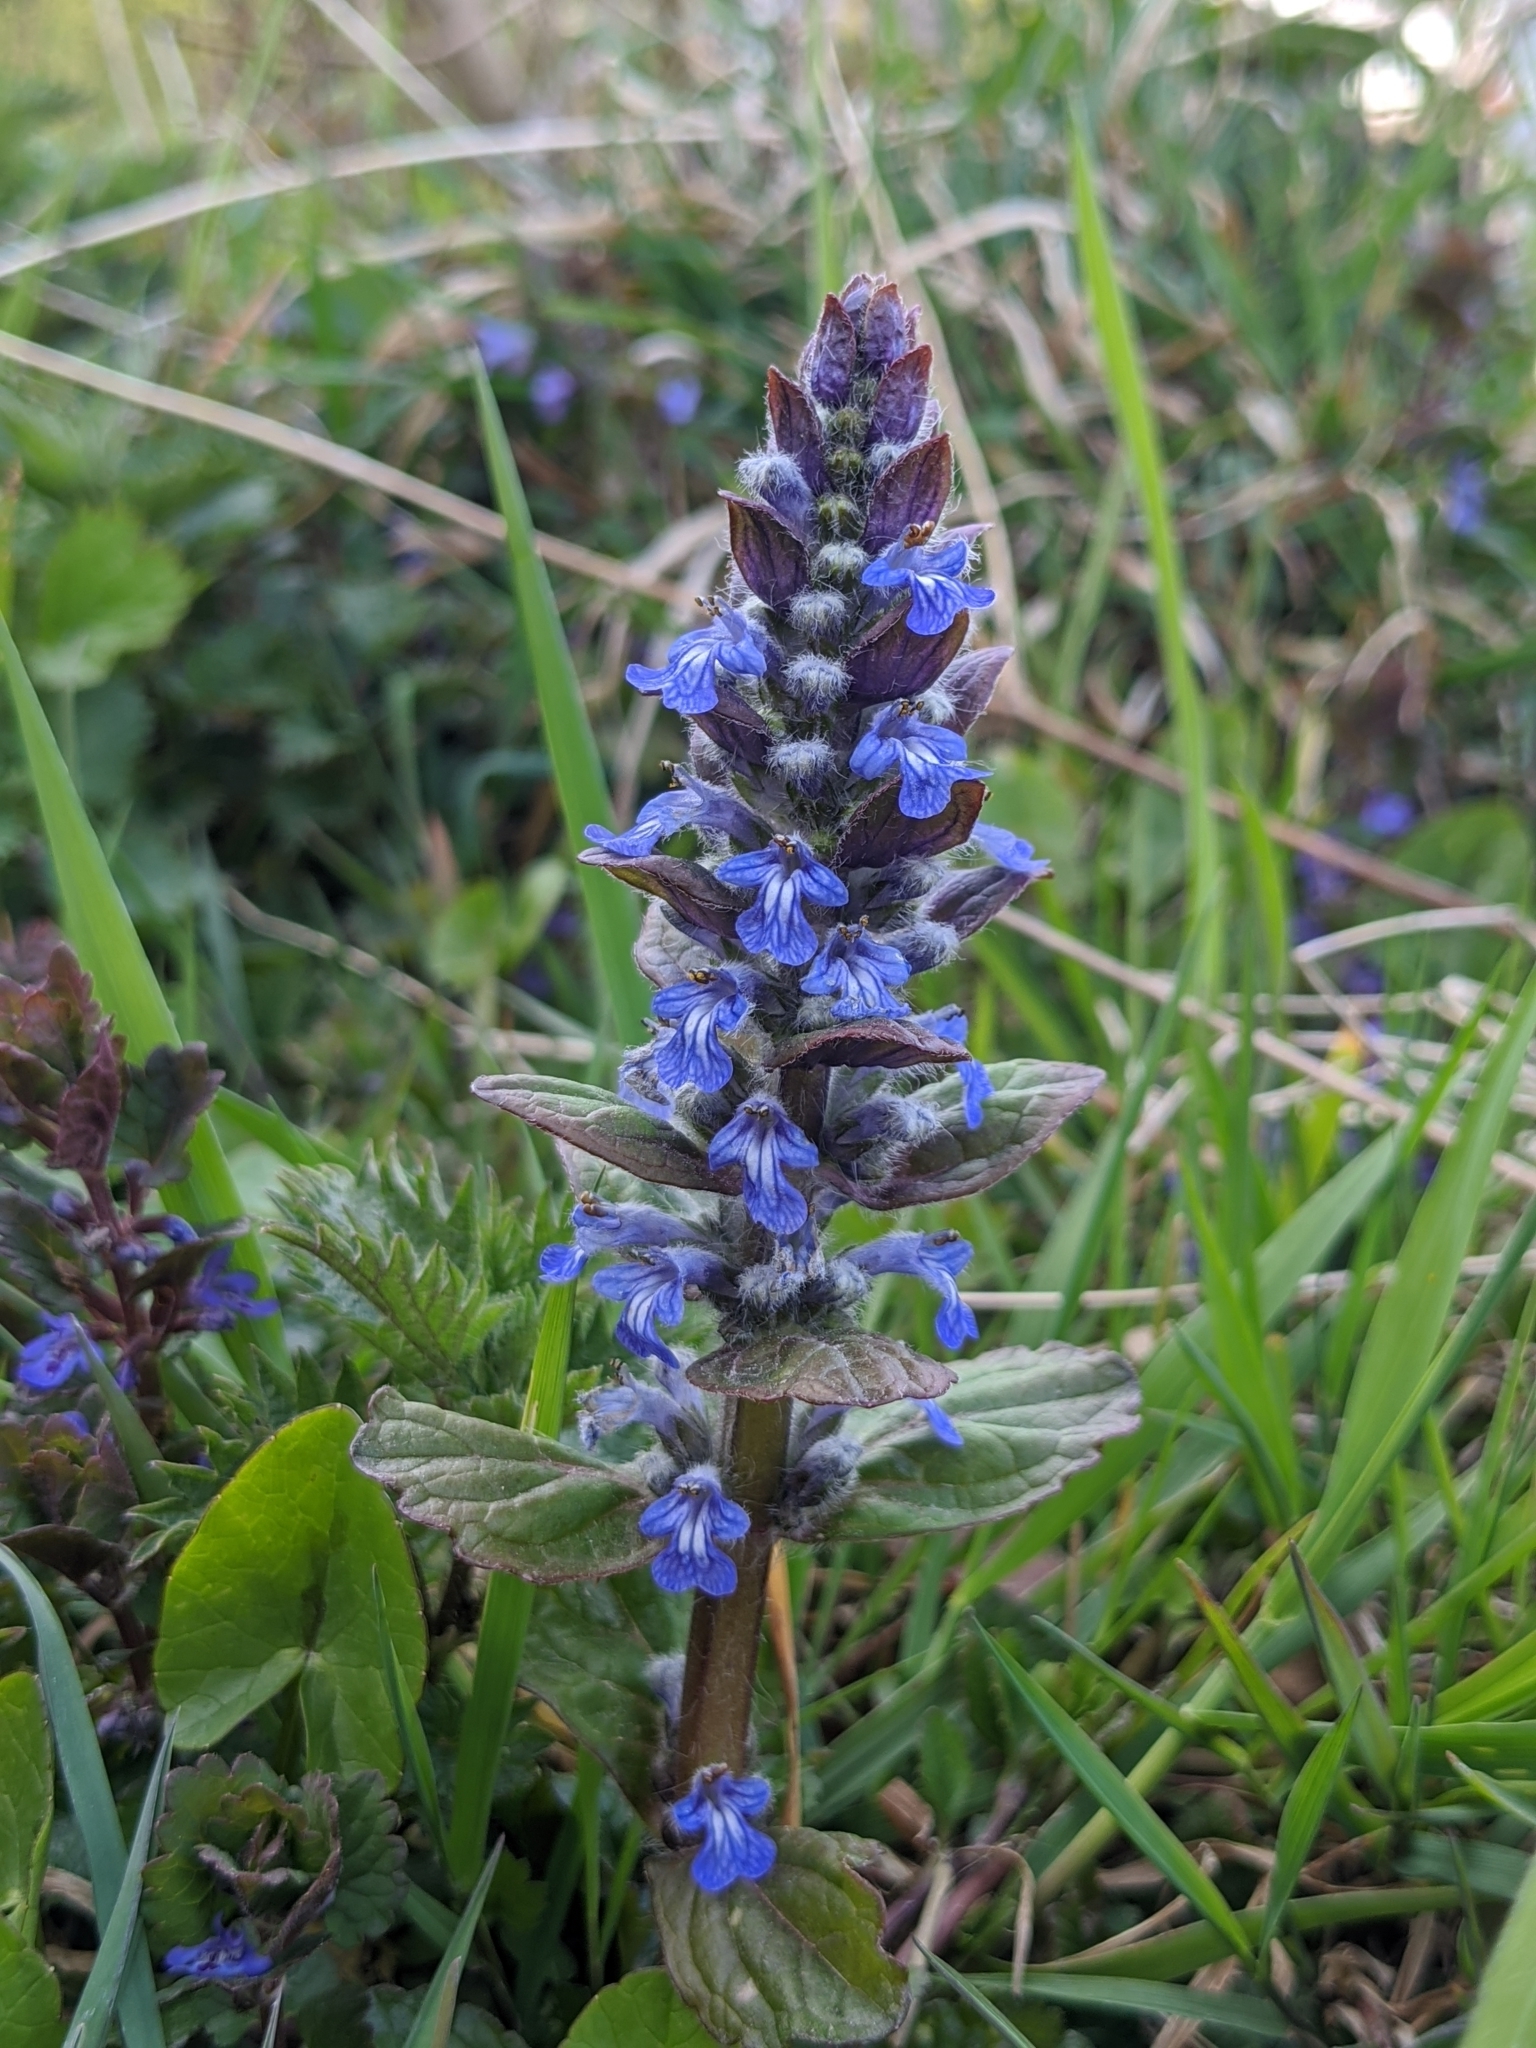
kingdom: Plantae
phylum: Tracheophyta
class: Magnoliopsida
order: Lamiales
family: Lamiaceae
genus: Ajuga
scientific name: Ajuga reptans
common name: Bugle
